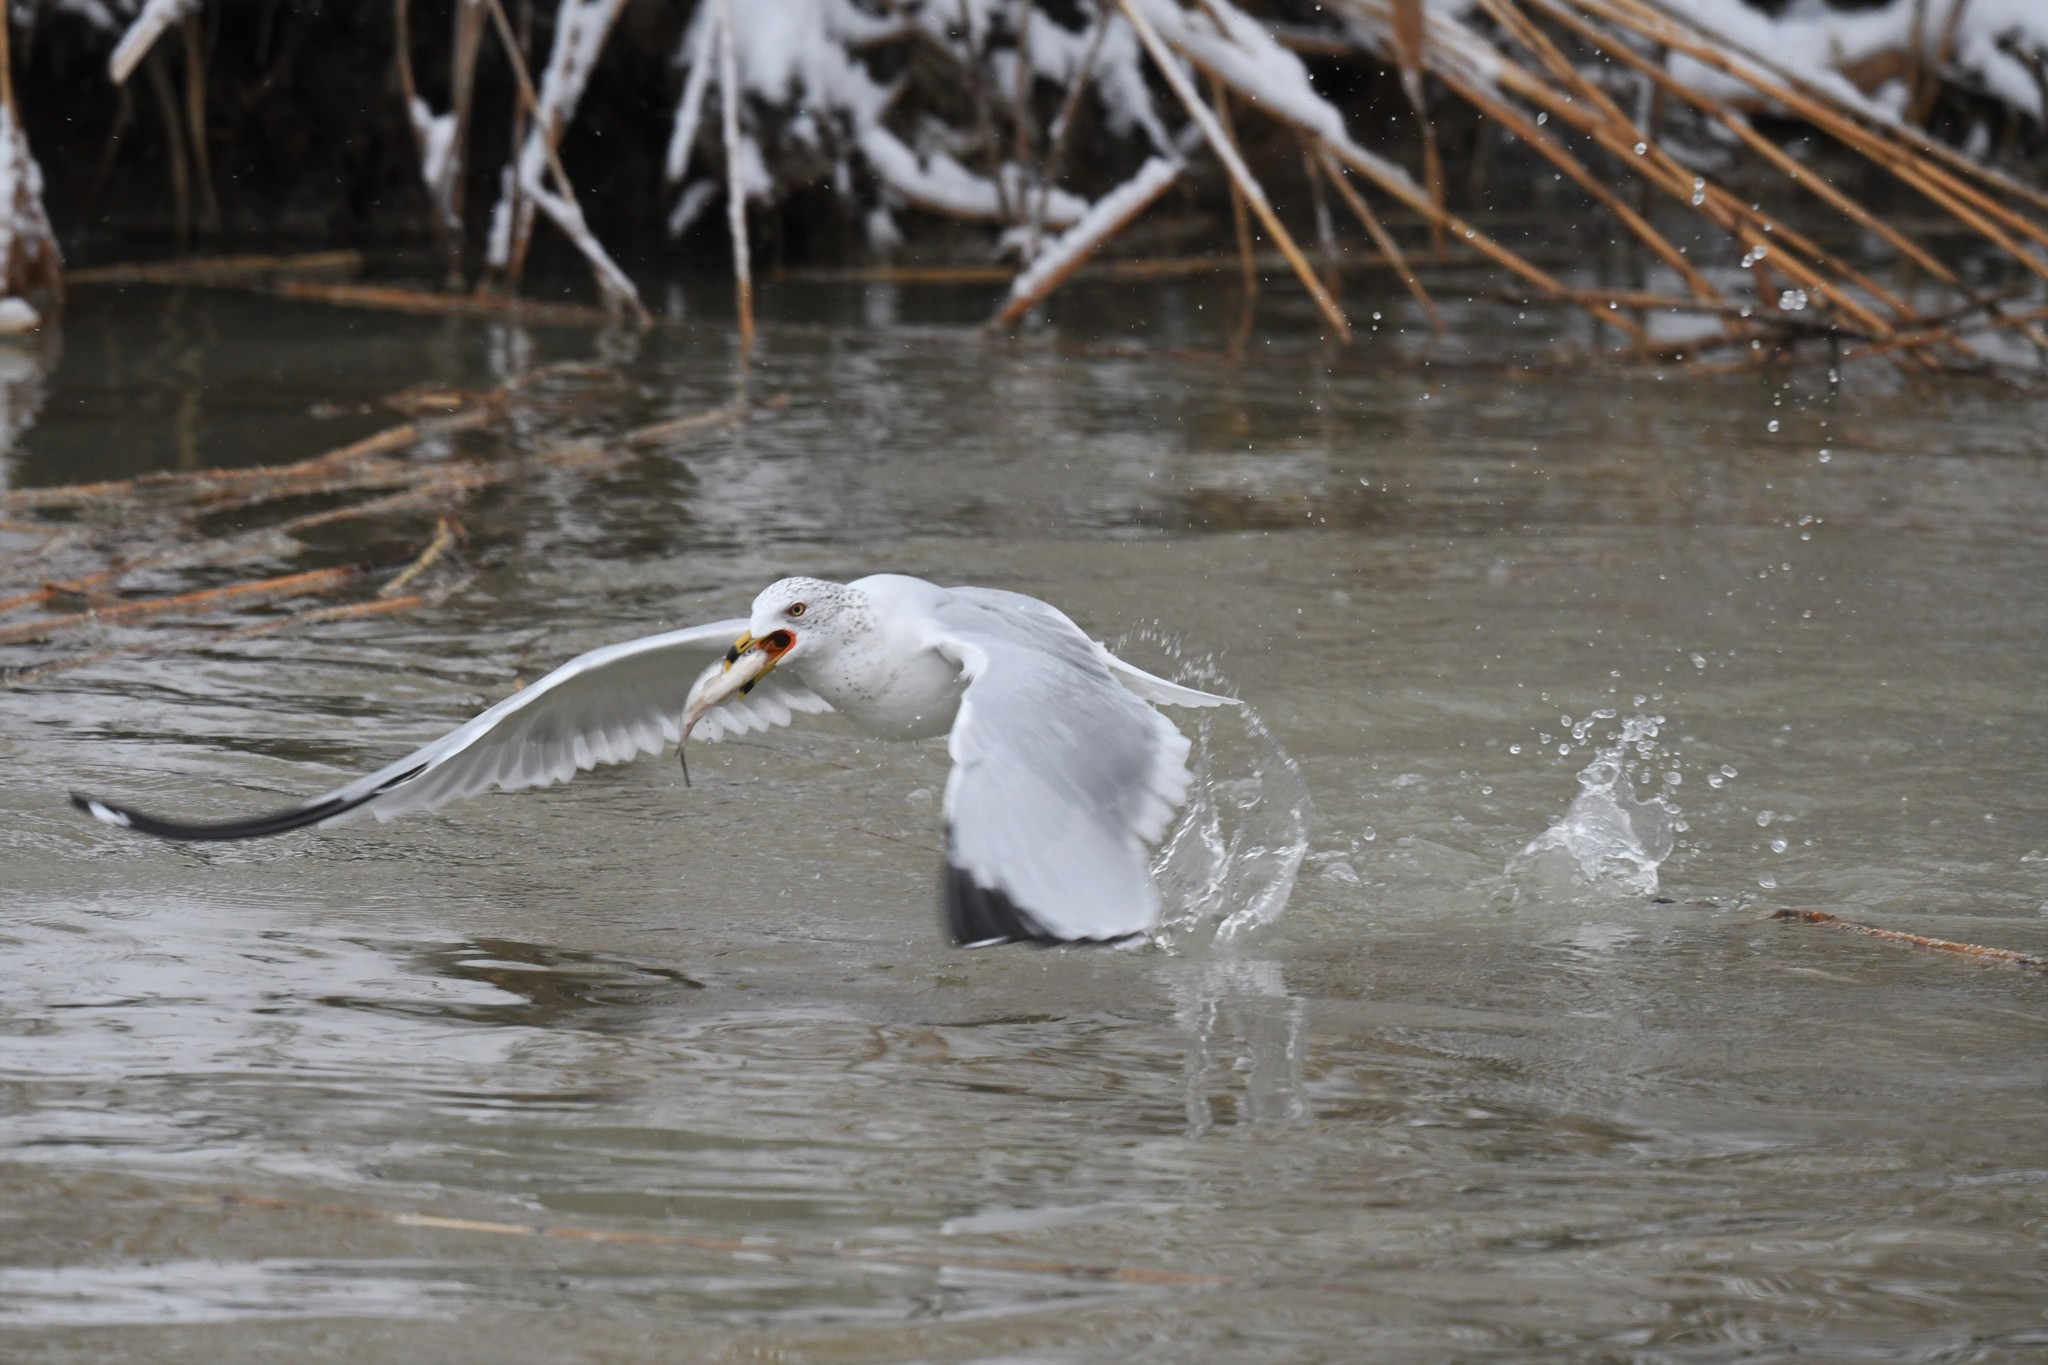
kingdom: Animalia
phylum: Chordata
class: Aves
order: Charadriiformes
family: Laridae
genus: Larus
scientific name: Larus delawarensis
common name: Ring-billed gull
